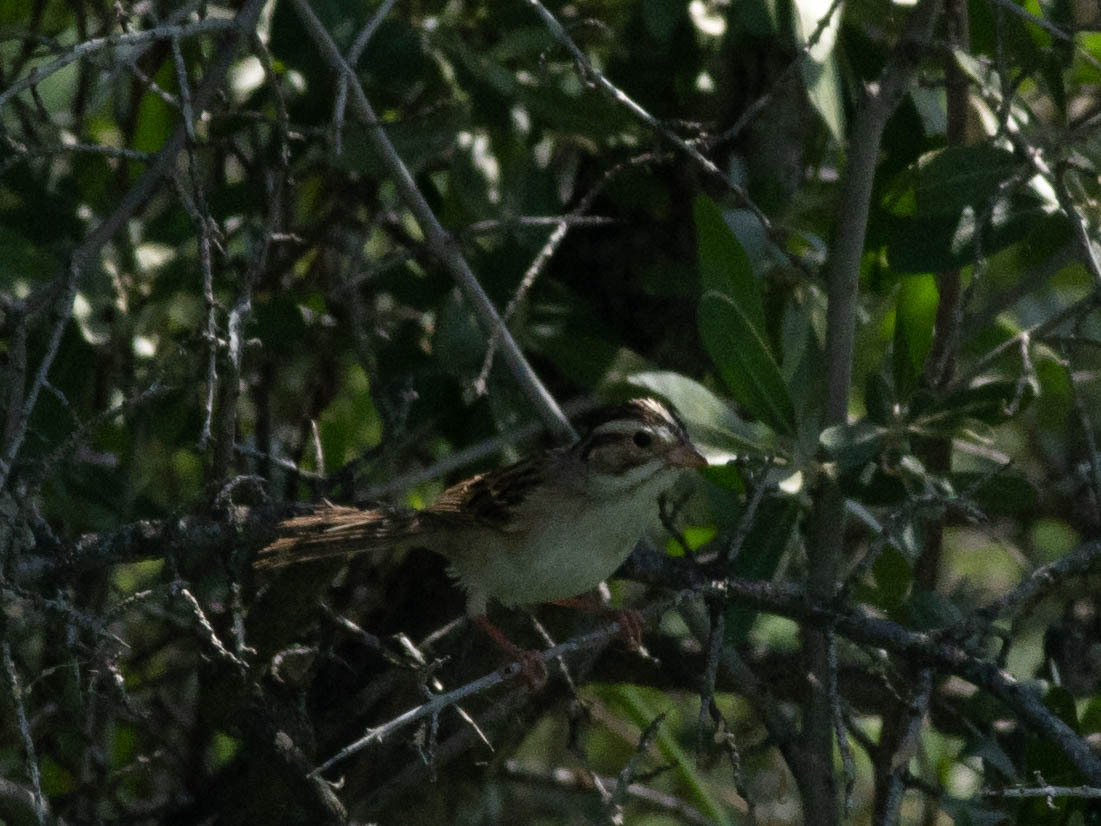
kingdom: Animalia
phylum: Chordata
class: Aves
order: Passeriformes
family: Passerellidae
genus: Spizella
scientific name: Spizella pallida
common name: Clay-colored sparrow
